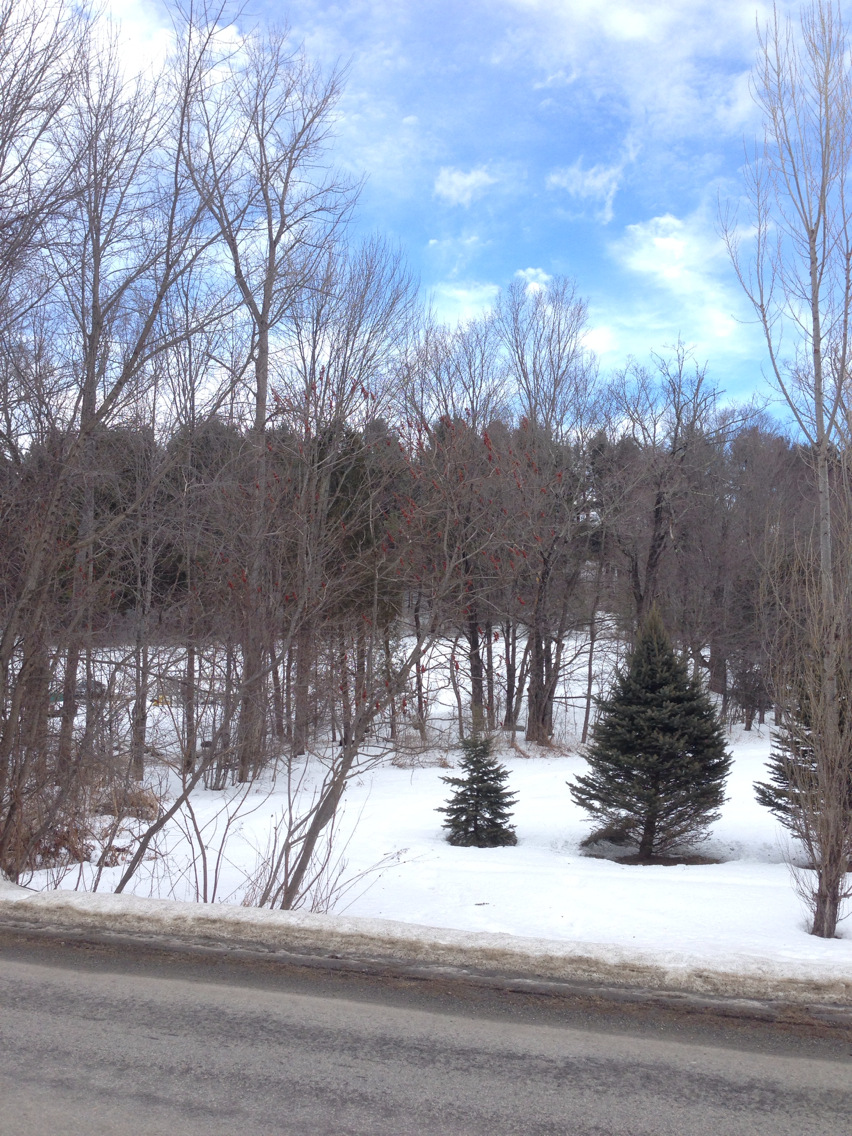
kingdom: Plantae
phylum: Tracheophyta
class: Magnoliopsida
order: Sapindales
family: Anacardiaceae
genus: Rhus
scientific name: Rhus typhina
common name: Staghorn sumac
